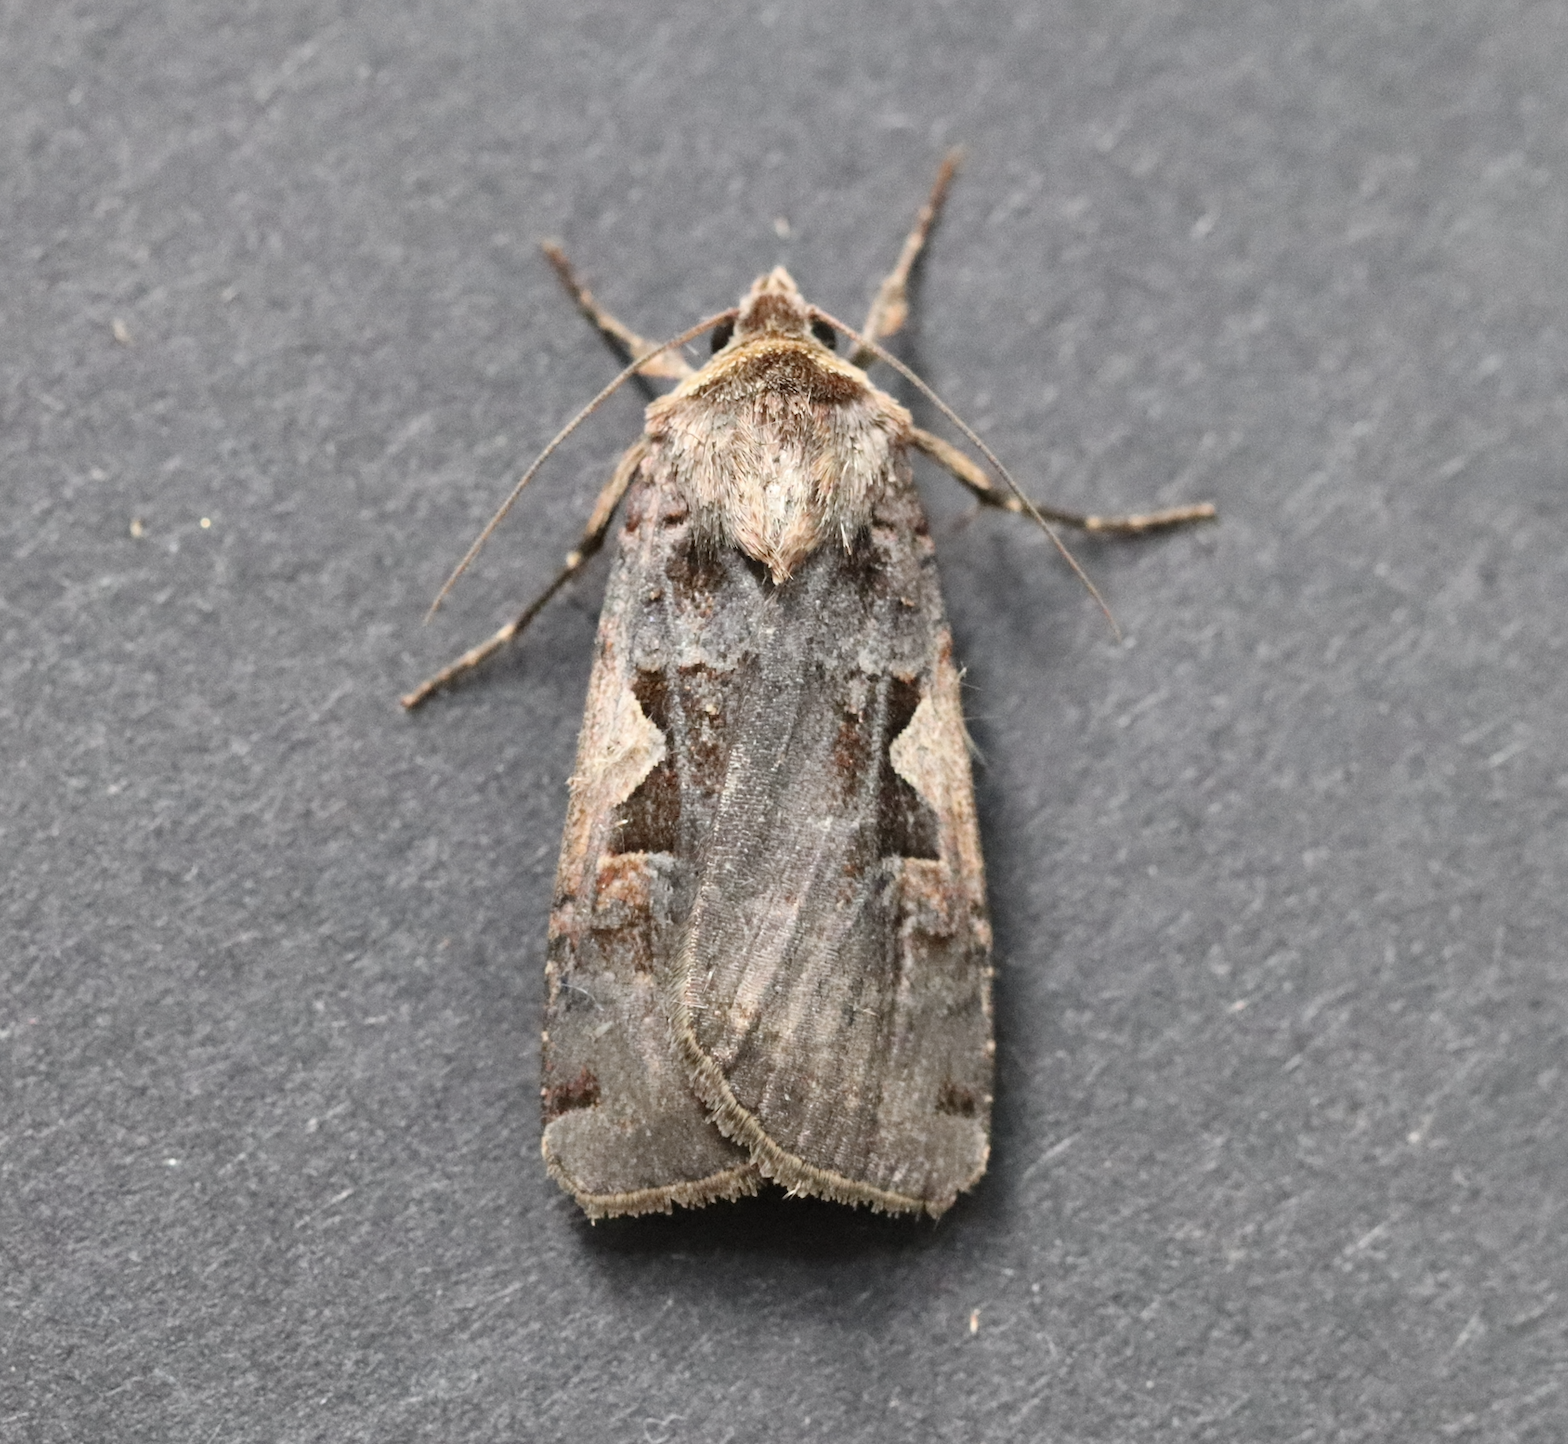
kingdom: Animalia
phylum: Arthropoda
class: Insecta
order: Lepidoptera
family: Noctuidae
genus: Xestia
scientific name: Xestia c-nigrum
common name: Setaceous hebrew character
